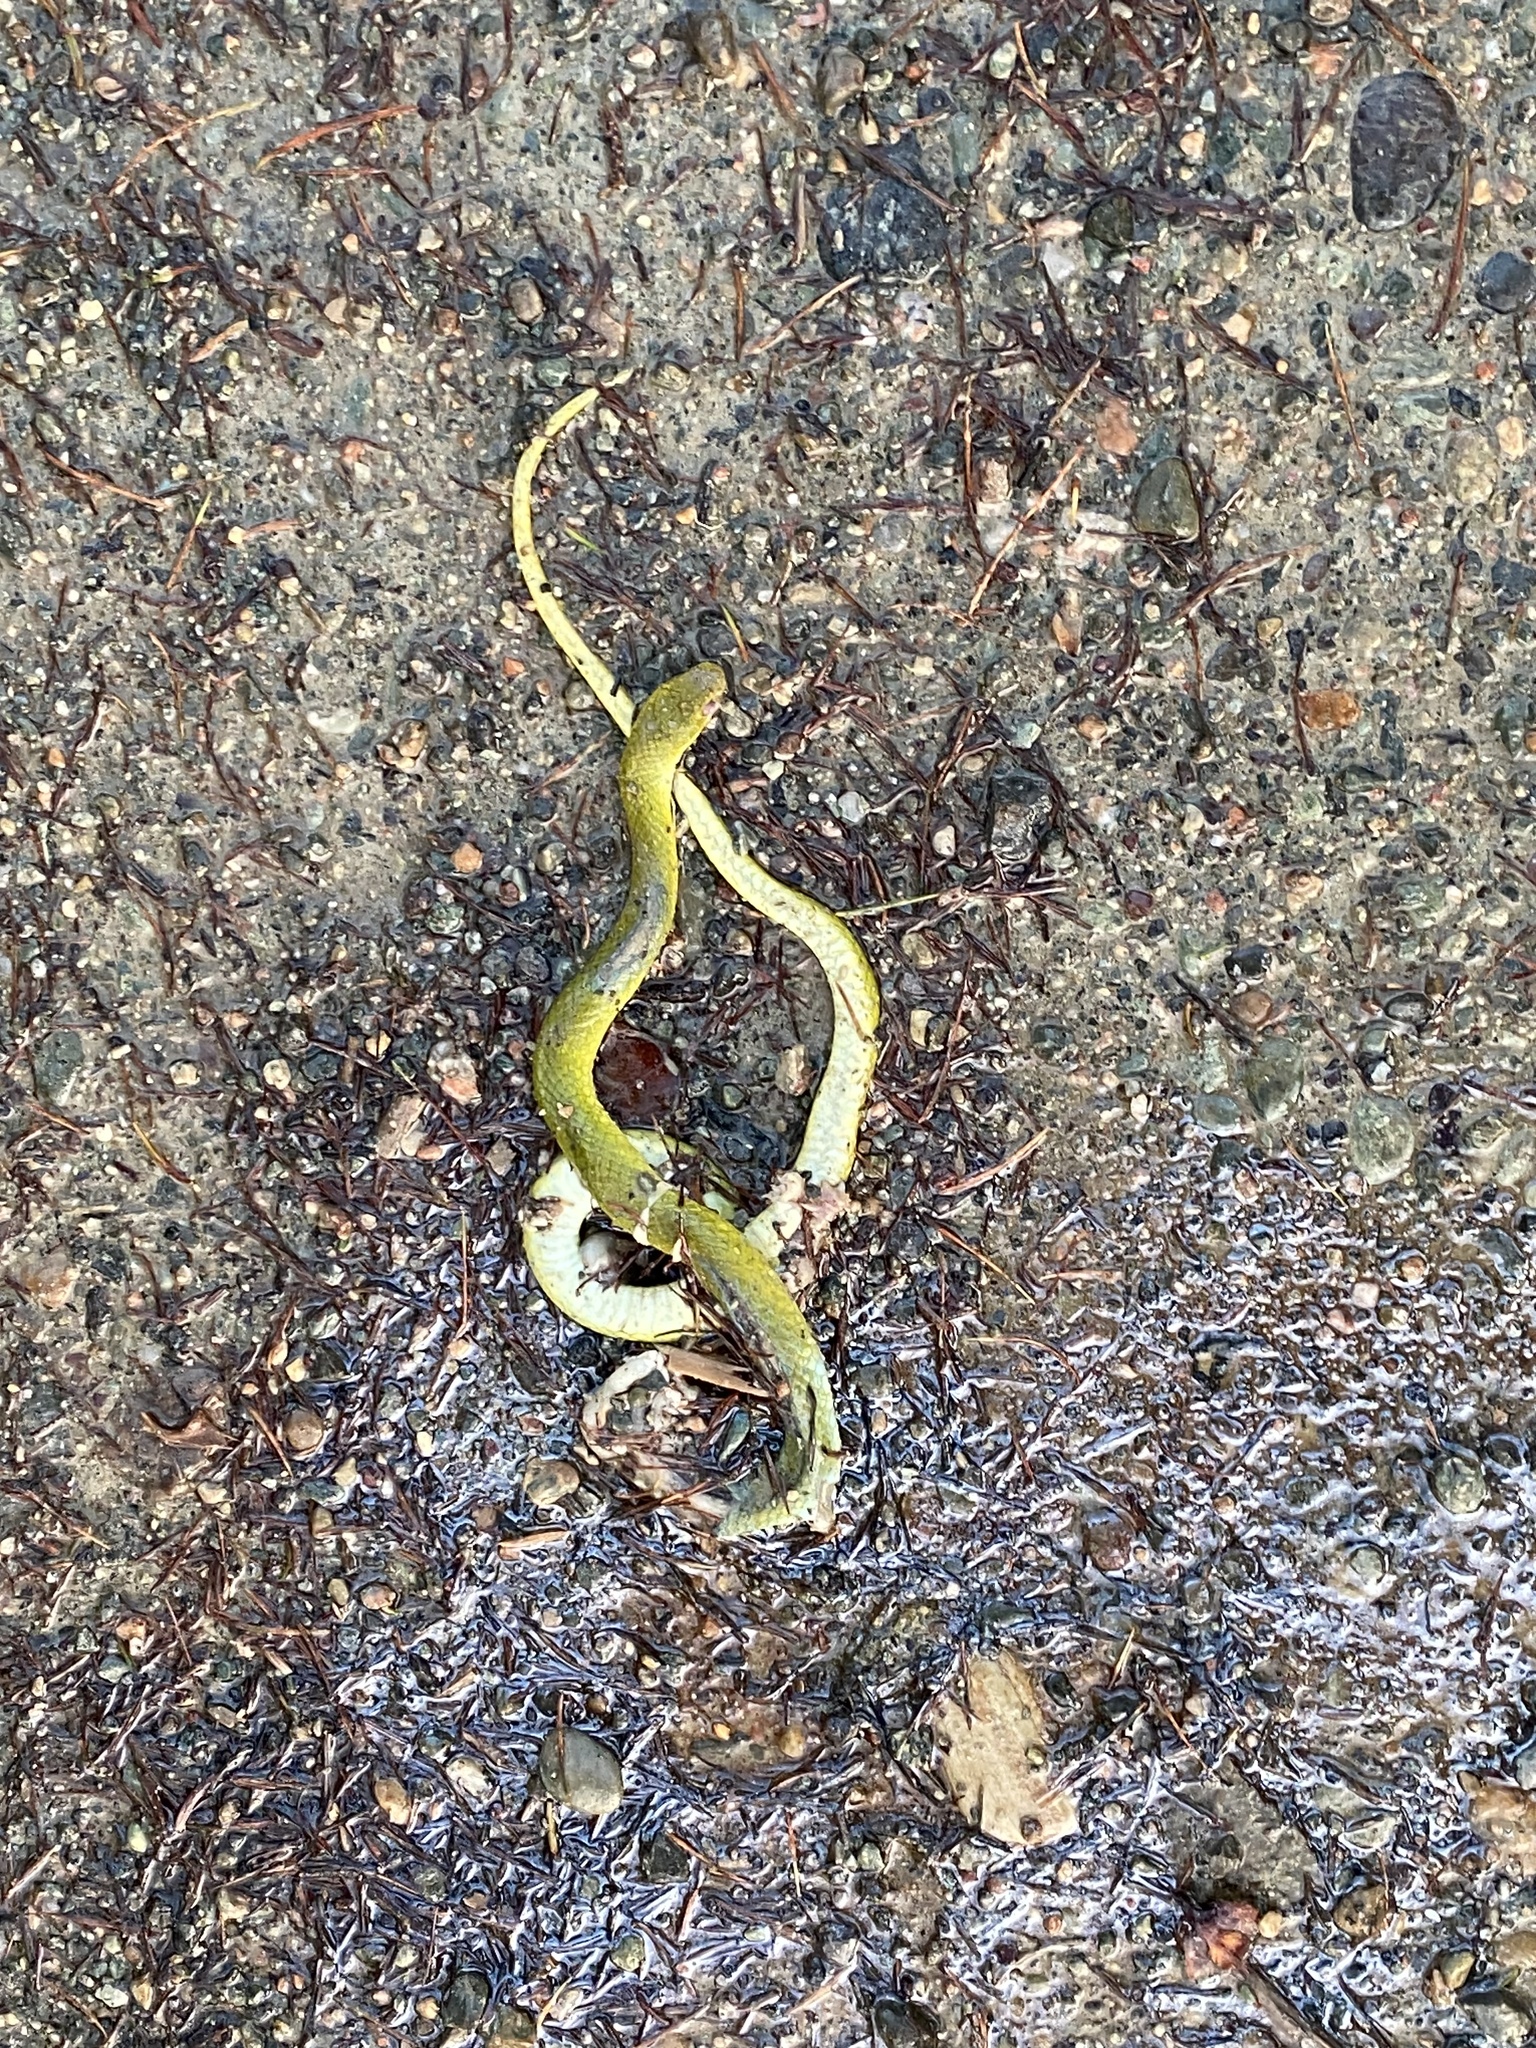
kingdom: Animalia
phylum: Chordata
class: Squamata
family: Colubridae
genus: Opheodrys
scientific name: Opheodrys vernalis
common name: Smooth green snake
